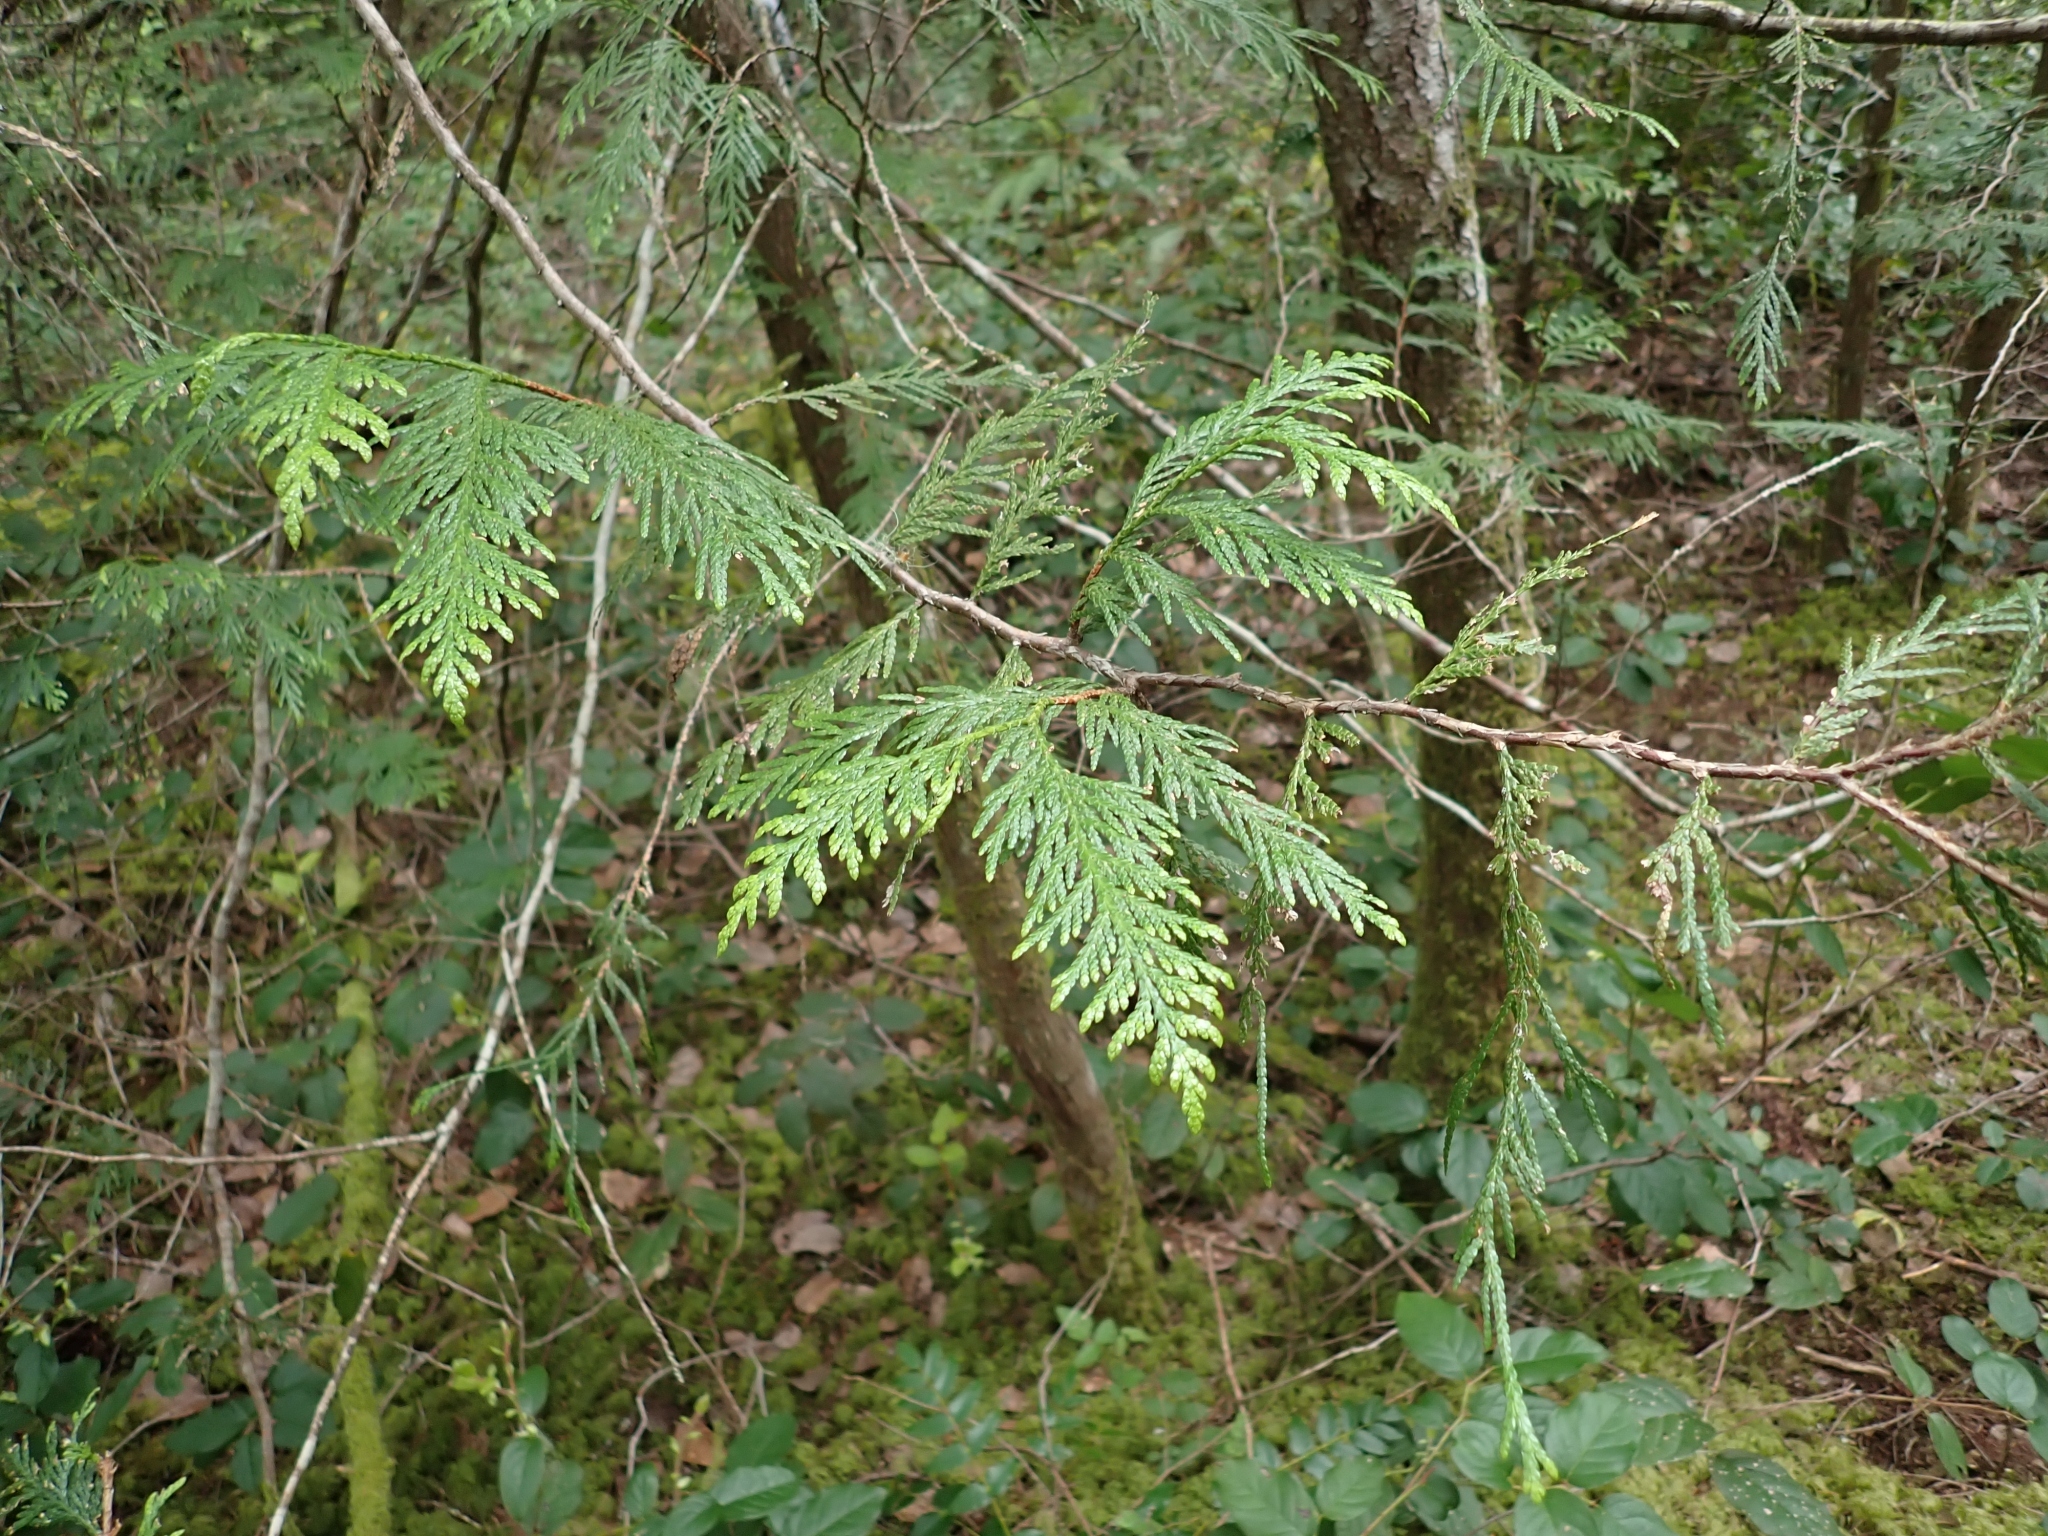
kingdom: Plantae
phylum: Tracheophyta
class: Pinopsida
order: Pinales
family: Cupressaceae
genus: Thuja
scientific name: Thuja plicata
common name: Western red-cedar
